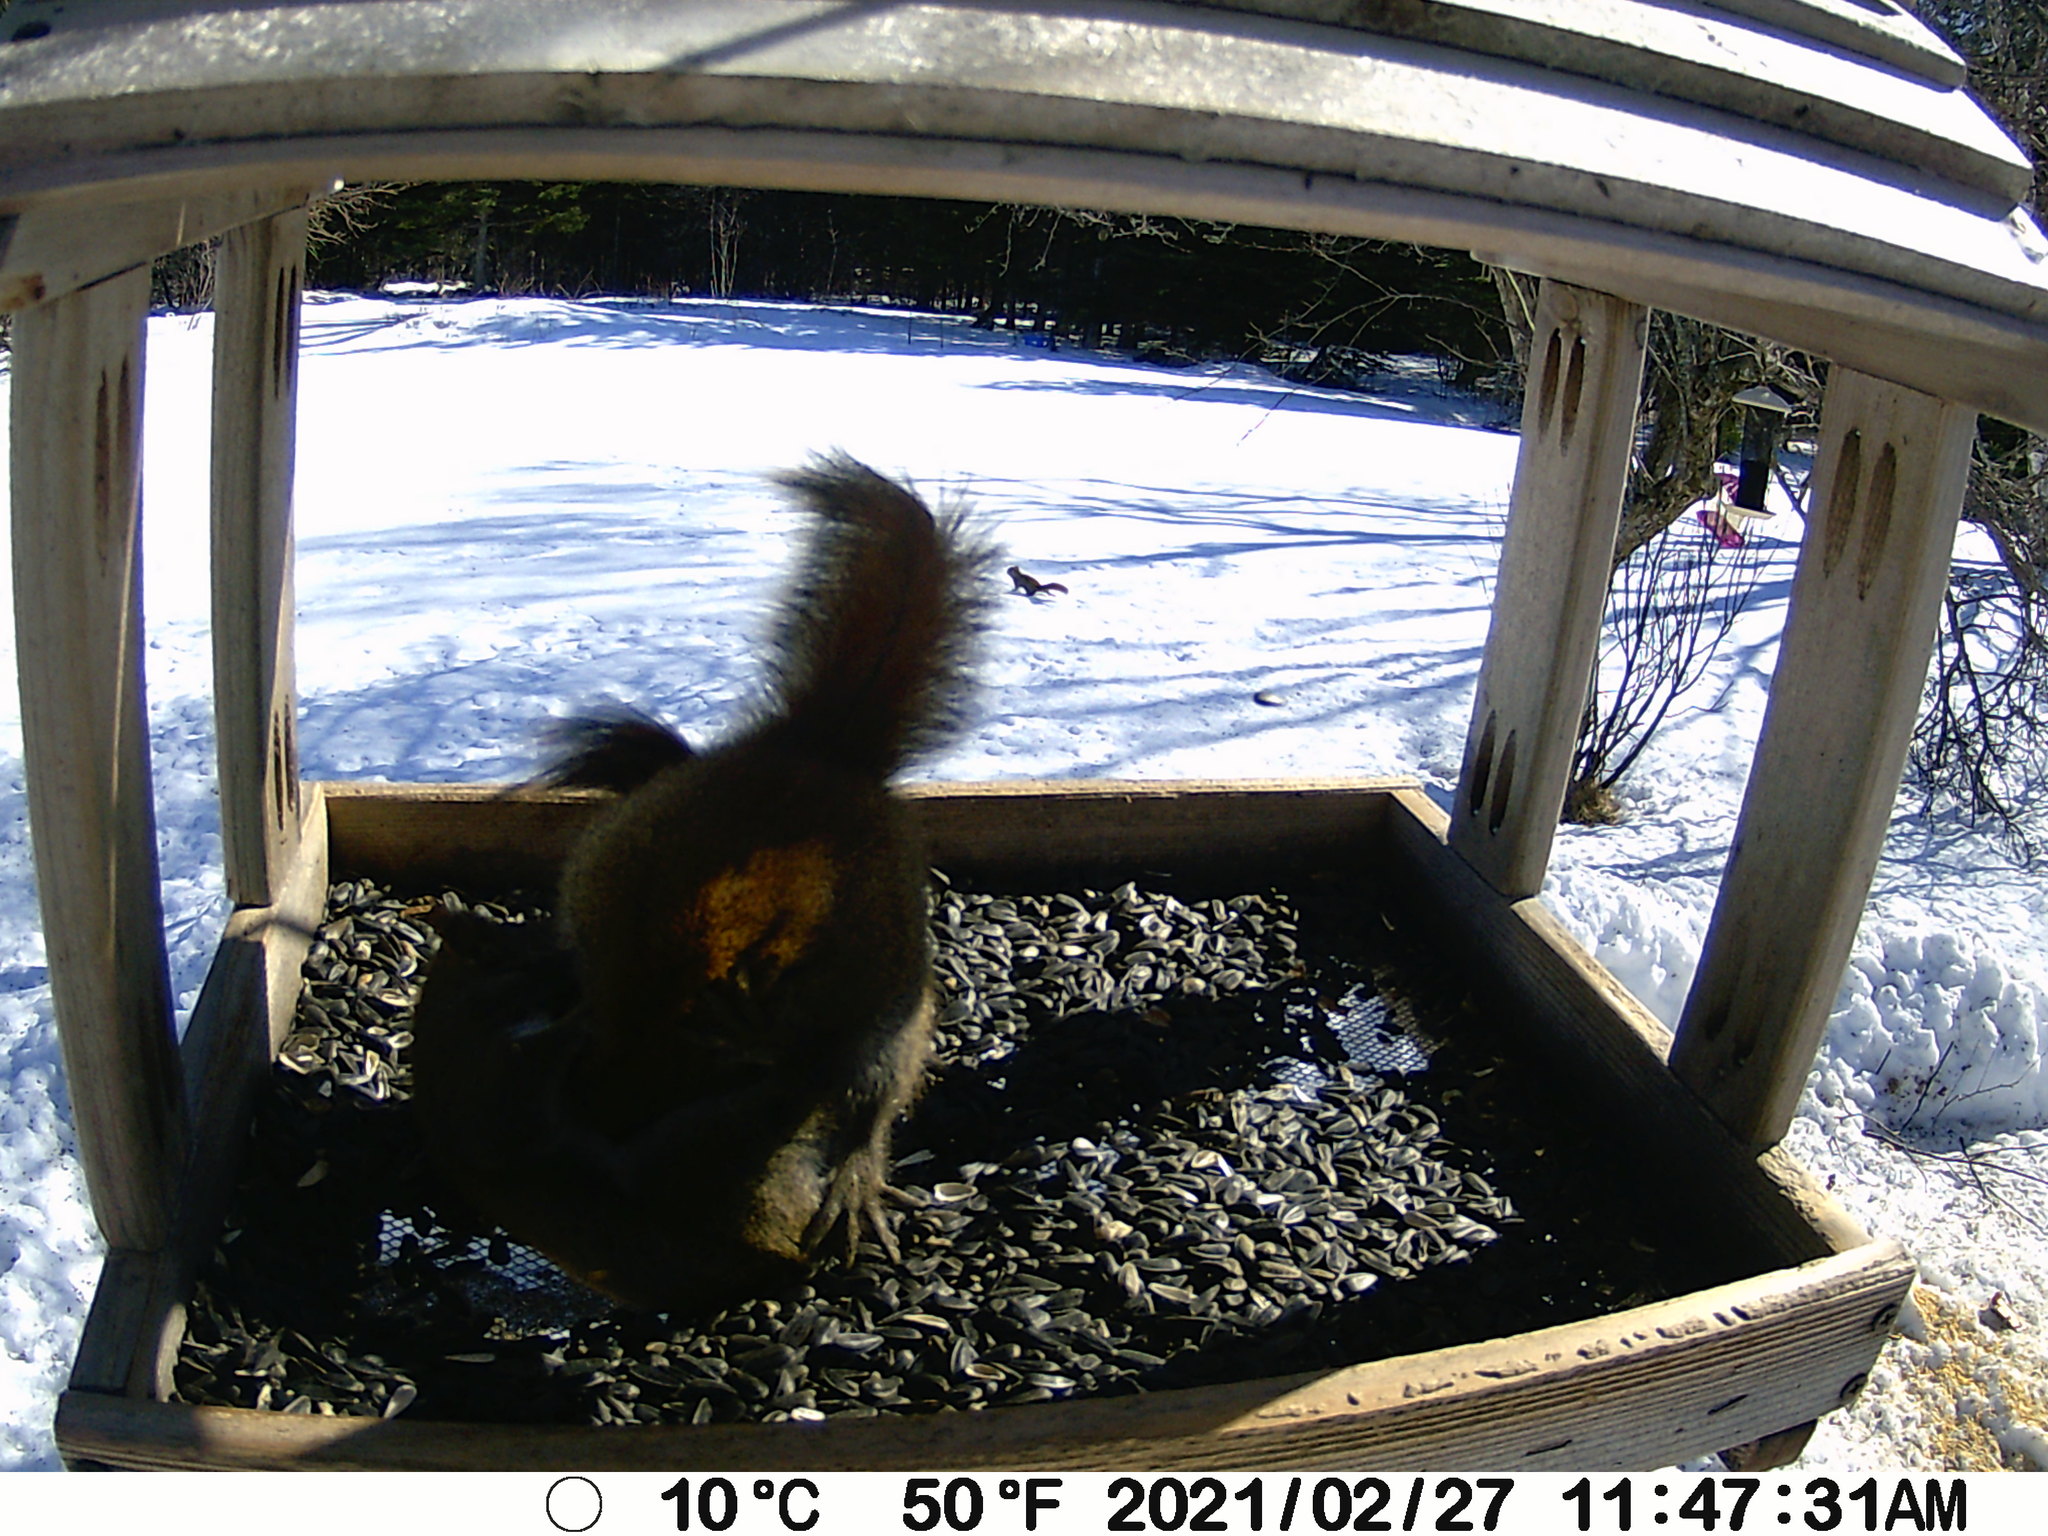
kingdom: Animalia
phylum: Chordata
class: Mammalia
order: Rodentia
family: Sciuridae
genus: Tamiasciurus
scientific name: Tamiasciurus hudsonicus
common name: Red squirrel
